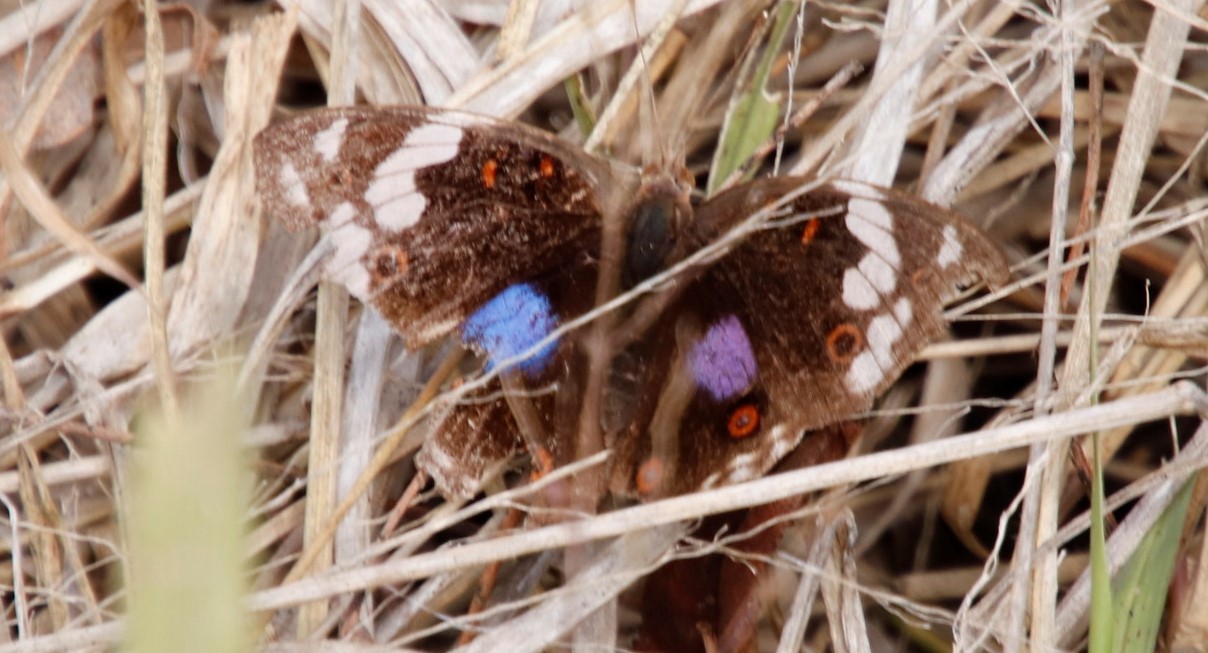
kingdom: Animalia
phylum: Arthropoda
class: Insecta
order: Lepidoptera
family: Nymphalidae
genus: Junonia
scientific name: Junonia oenone
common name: Dark blue pansy
